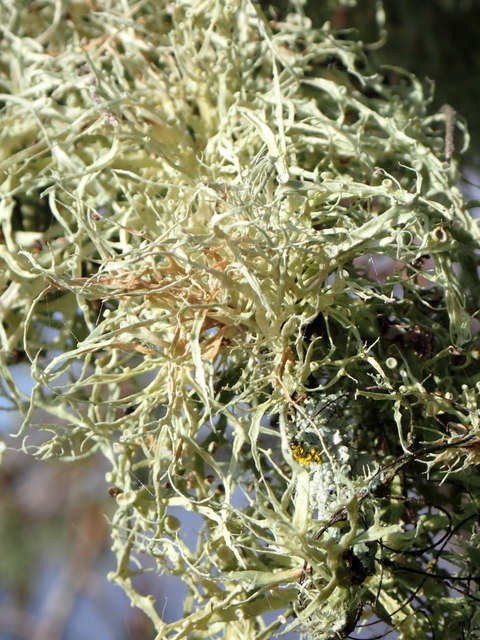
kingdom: Fungi
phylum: Ascomycota
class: Lecanoromycetes
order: Lecanorales
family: Ramalinaceae
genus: Ramalina
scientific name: Ramalina stenospora
